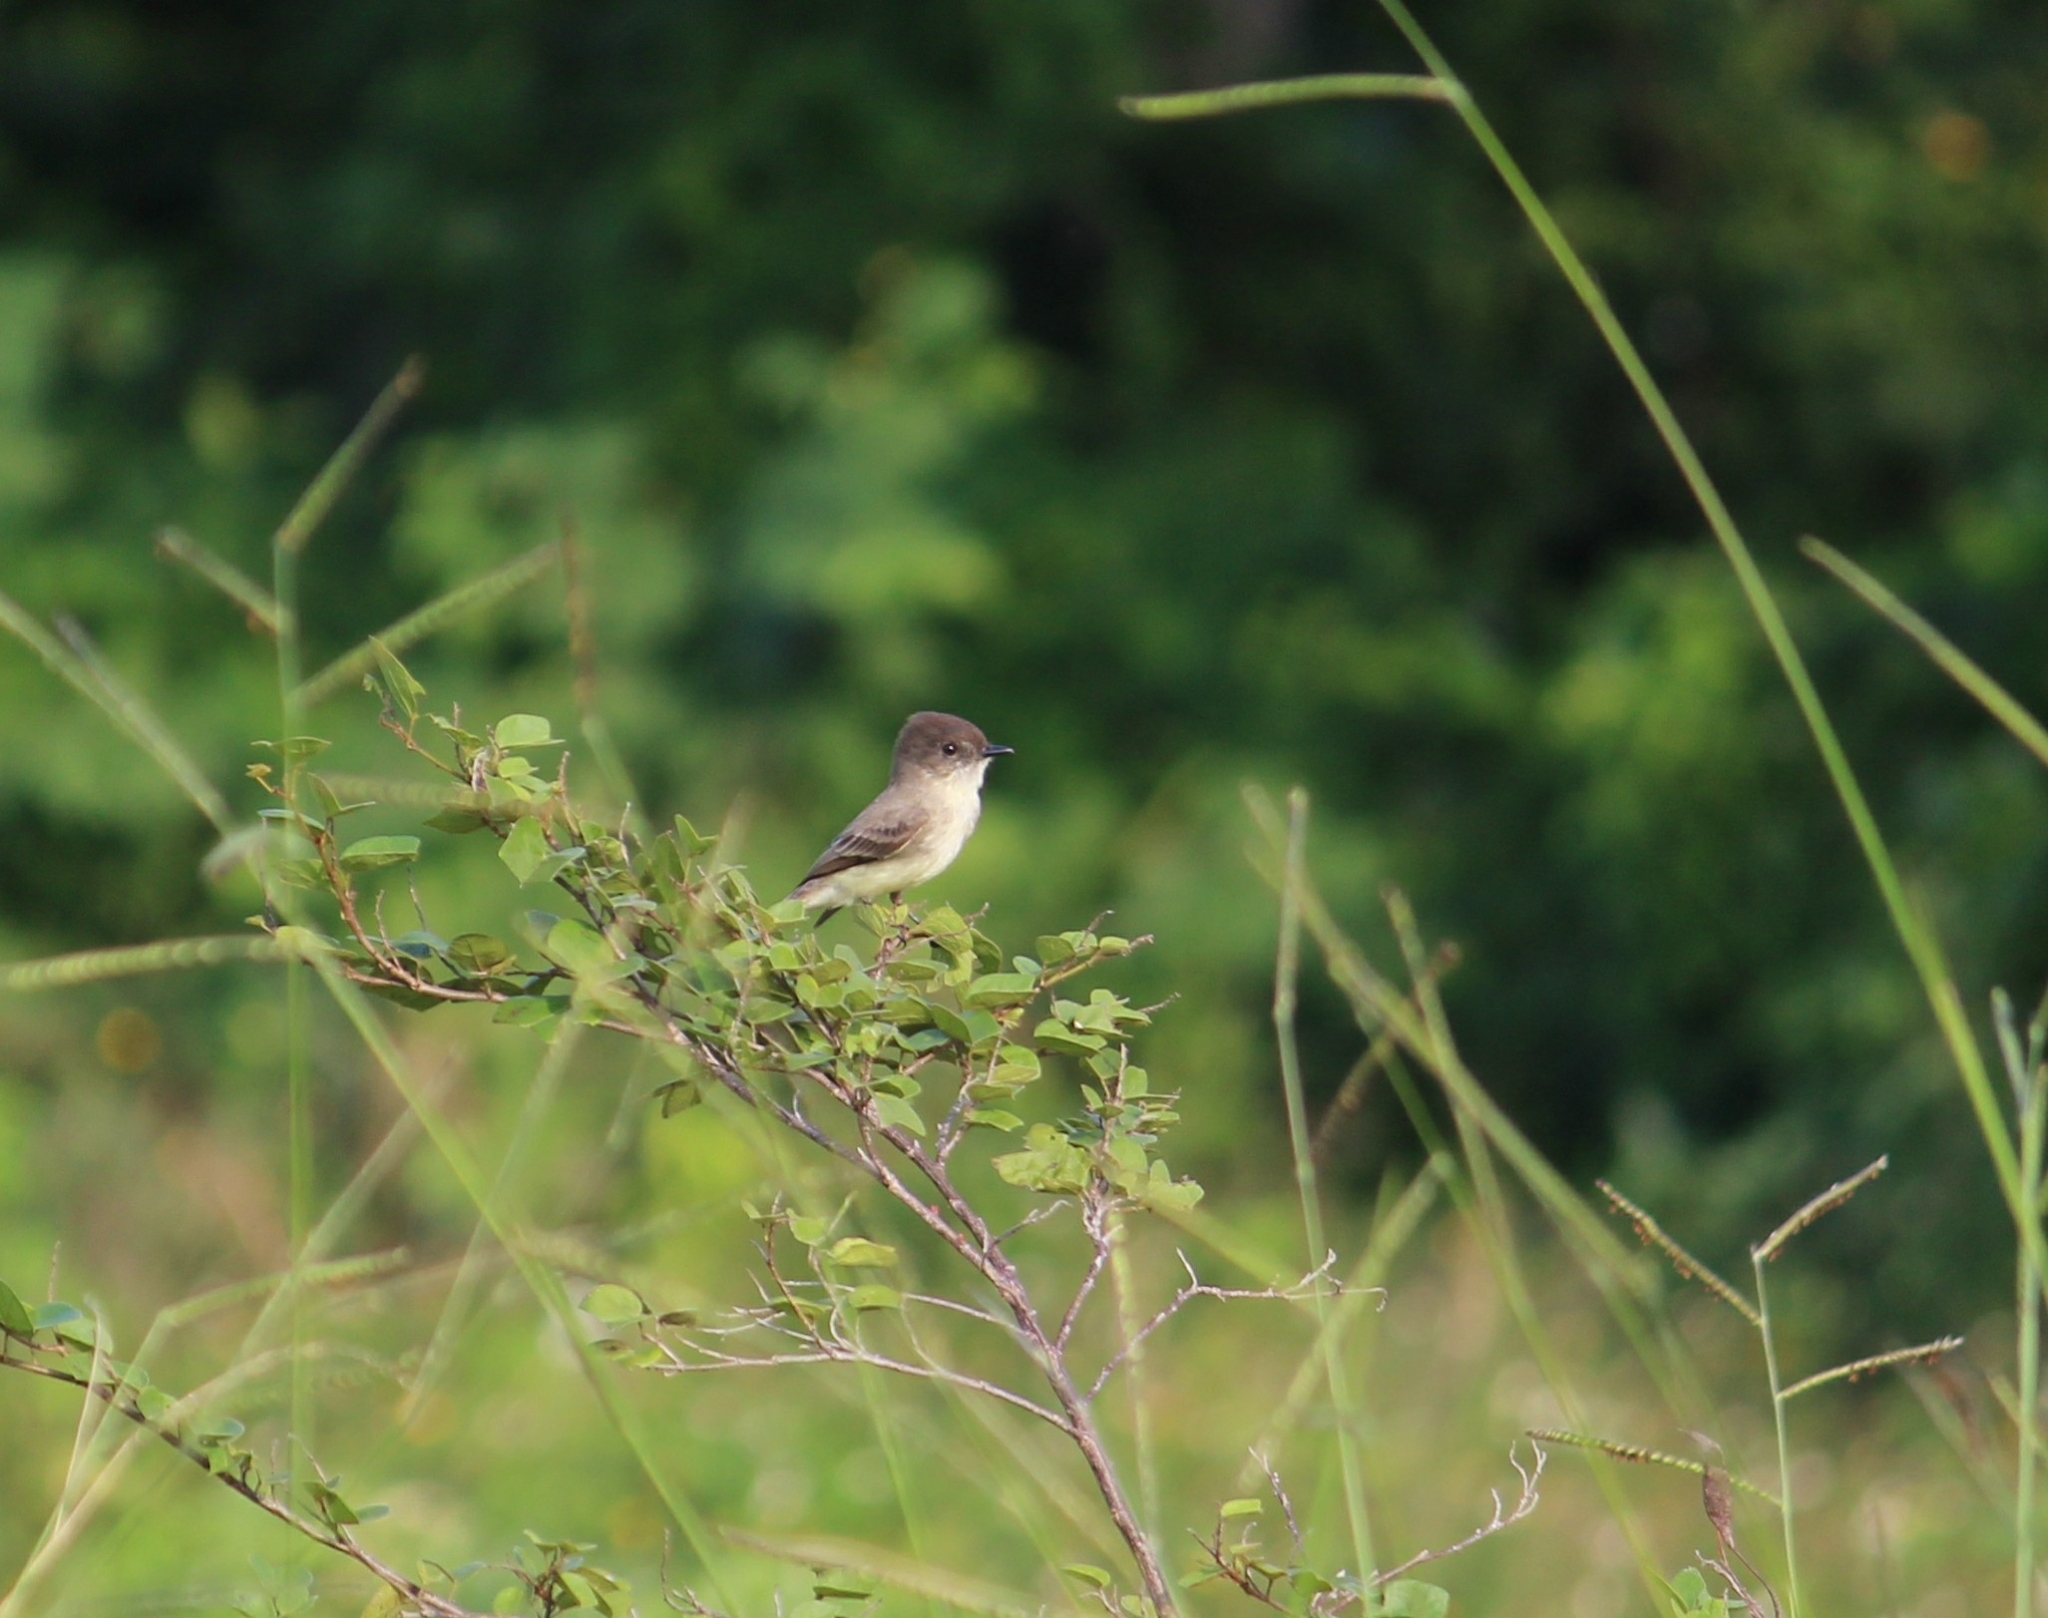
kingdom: Animalia
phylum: Chordata
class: Aves
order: Passeriformes
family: Tyrannidae
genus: Sayornis
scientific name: Sayornis phoebe
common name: Eastern phoebe
